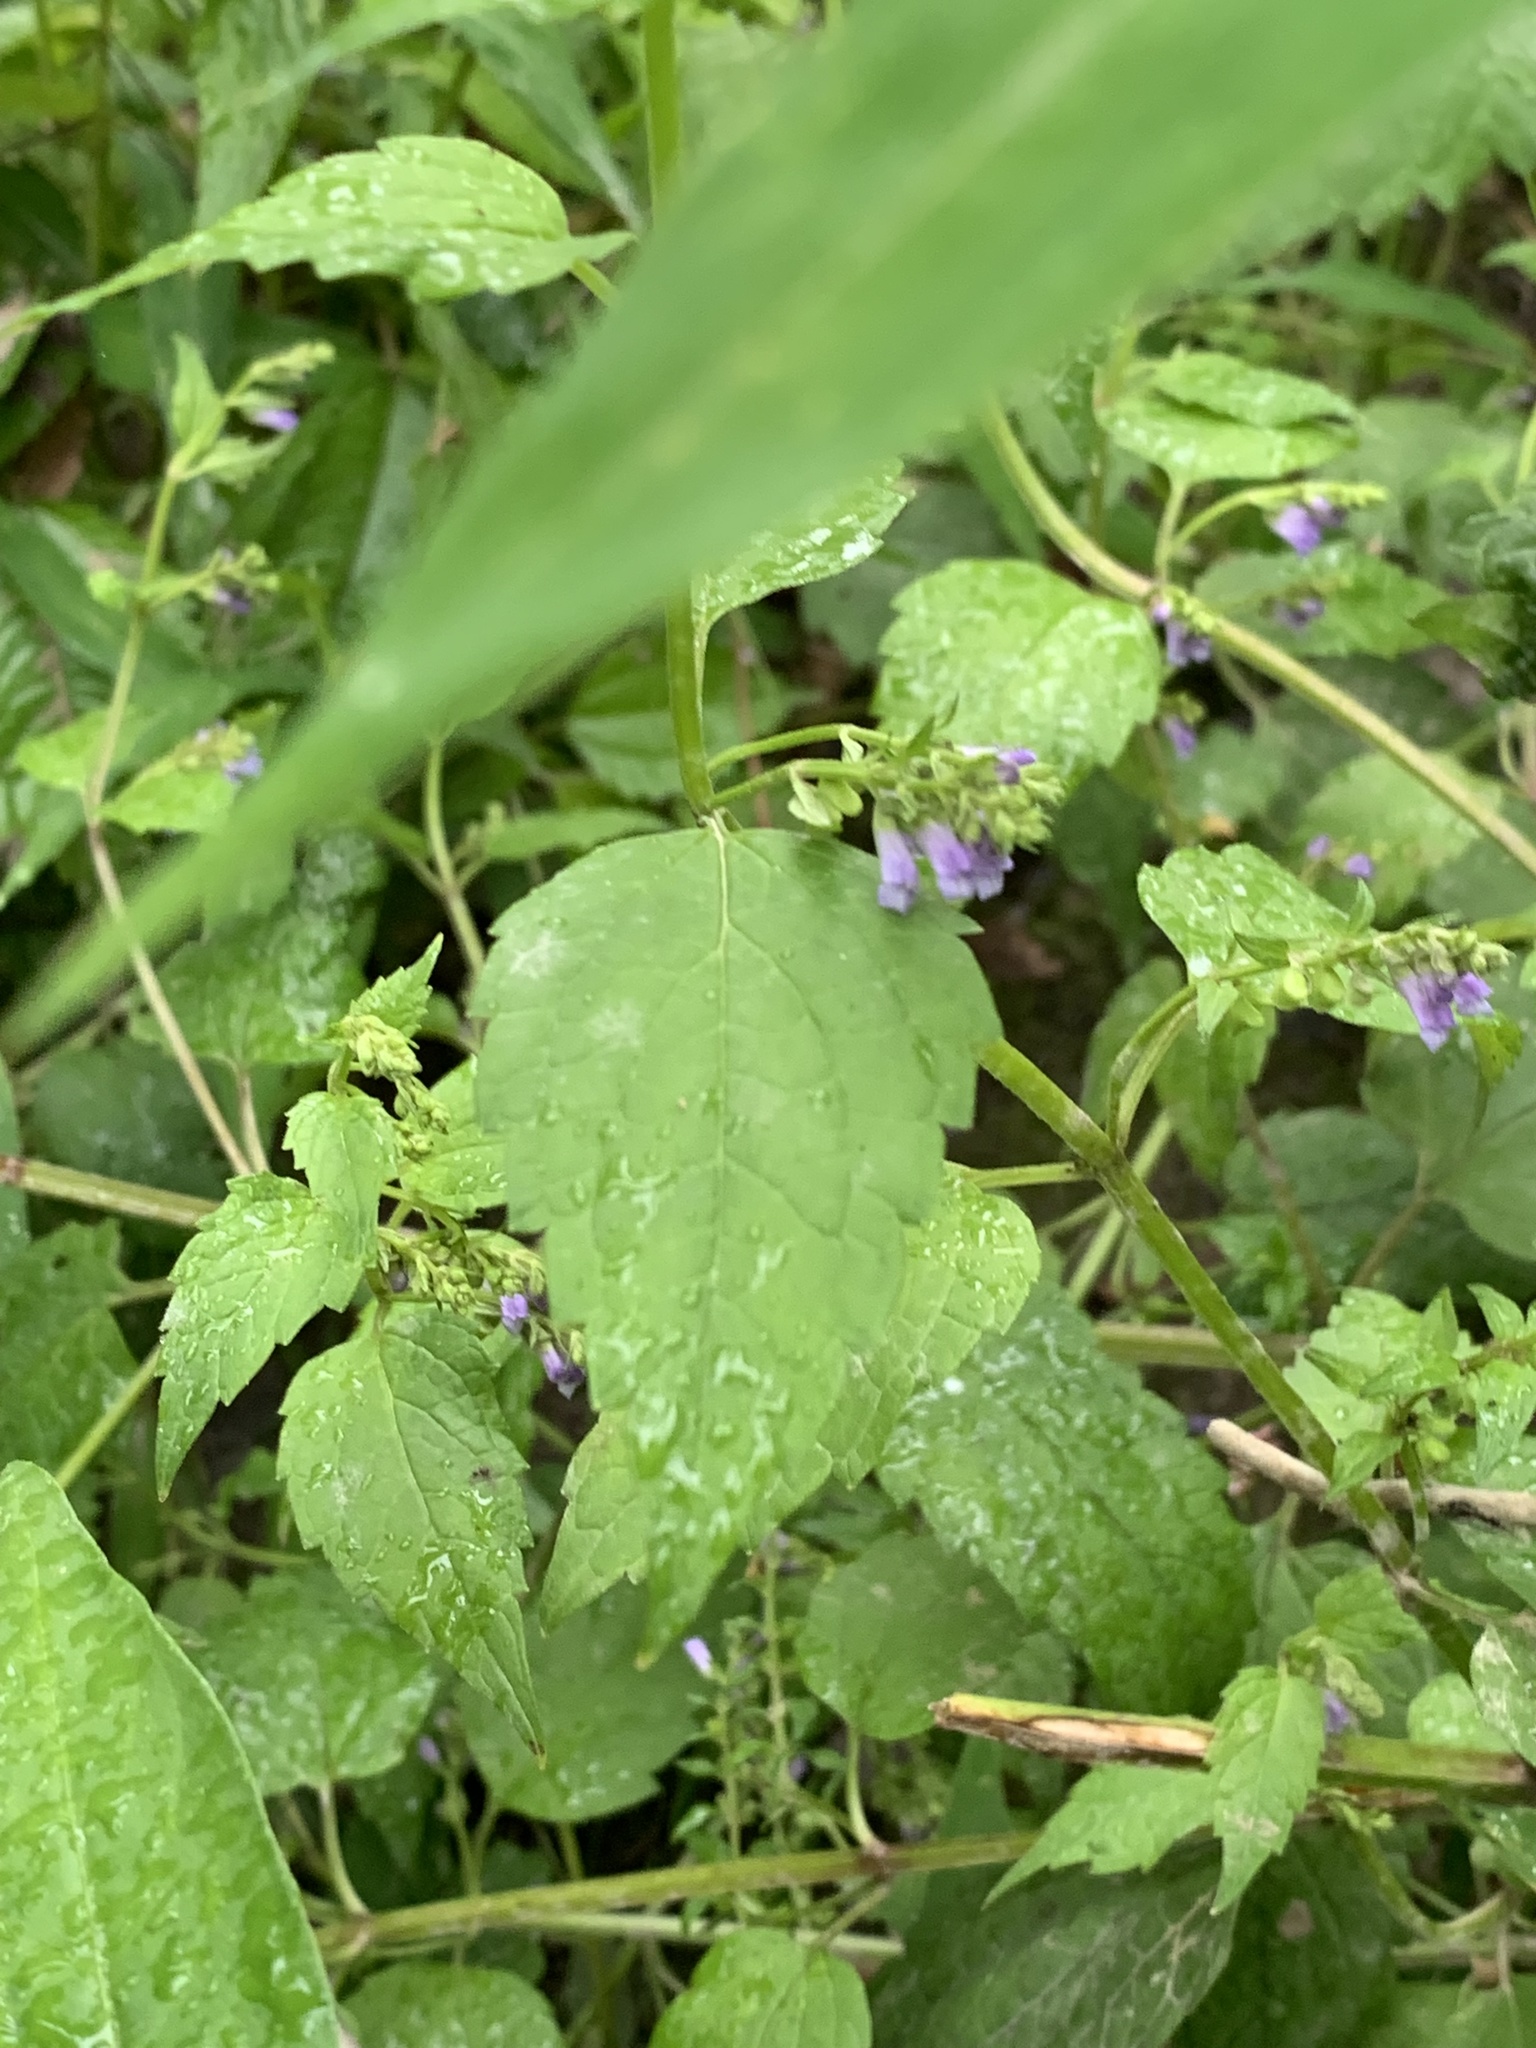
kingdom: Plantae
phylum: Tracheophyta
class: Magnoliopsida
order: Lamiales
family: Lamiaceae
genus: Scutellaria
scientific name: Scutellaria lateriflora
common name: Blue skullcap
